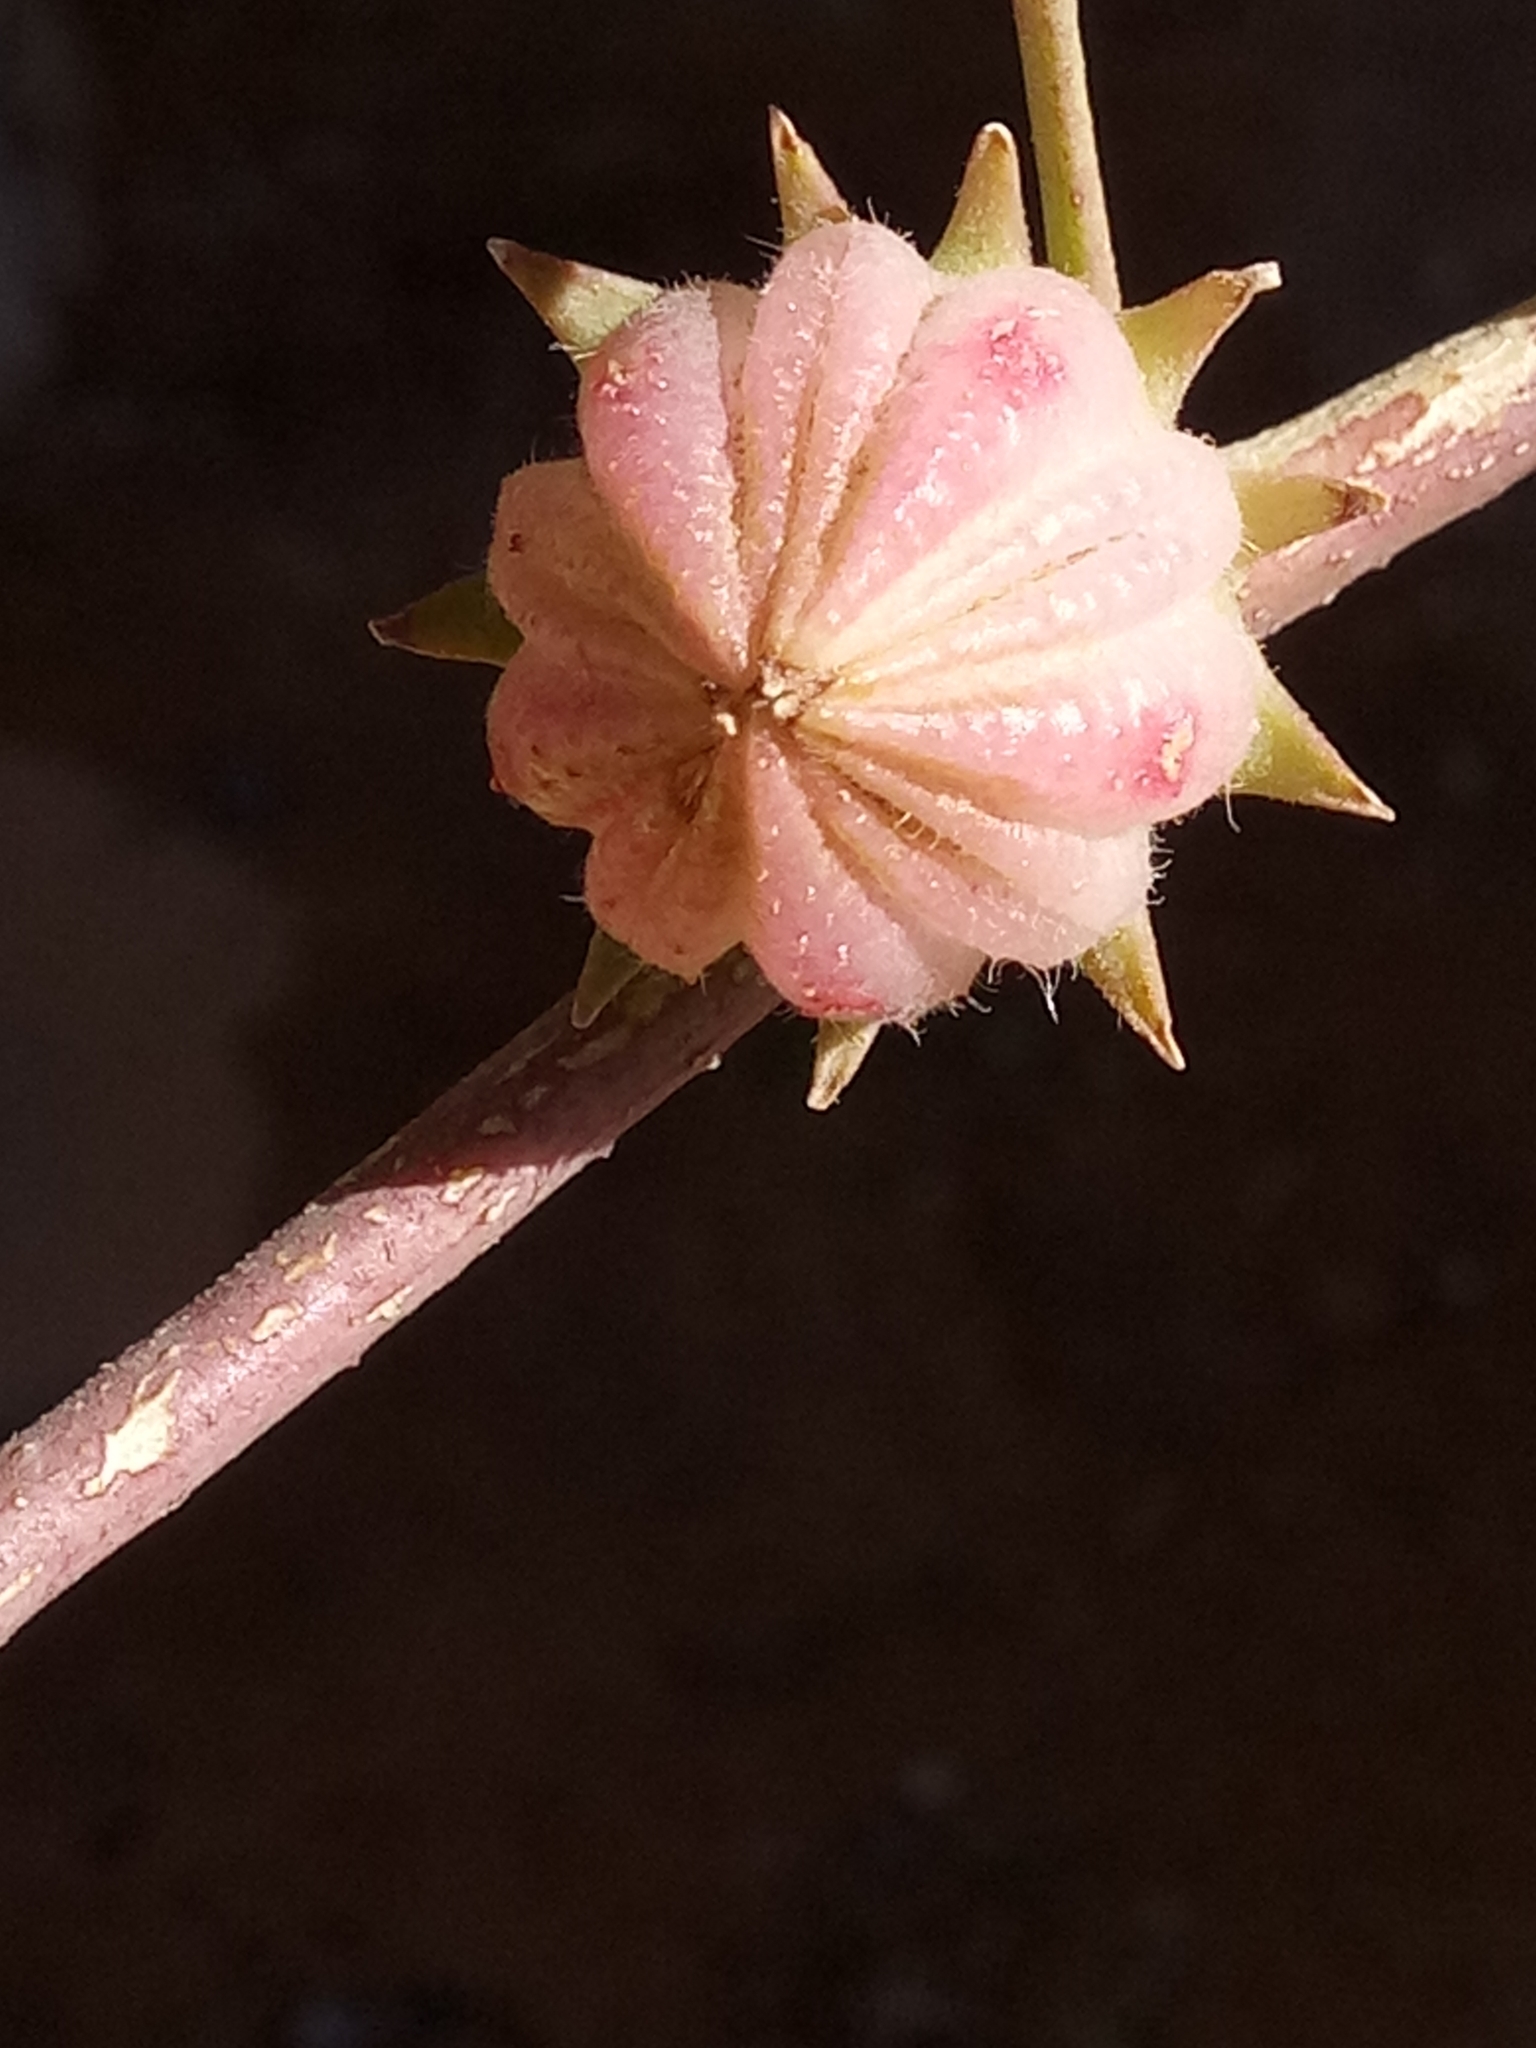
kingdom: Plantae
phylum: Tracheophyta
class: Magnoliopsida
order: Malvales
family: Malvaceae
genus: Hibiscus
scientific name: Hibiscus sabdariffa
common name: Roselle
